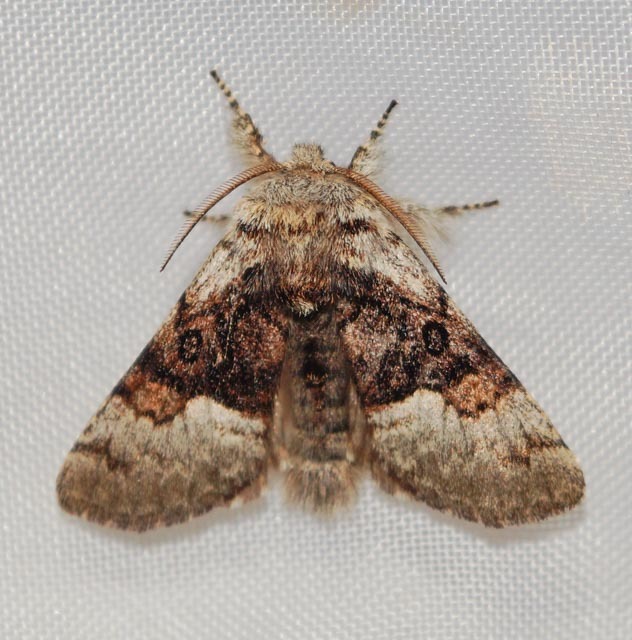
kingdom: Animalia
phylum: Arthropoda
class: Insecta
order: Lepidoptera
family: Noctuidae
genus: Colocasia
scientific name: Colocasia coryli
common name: Nut-tree tussock
